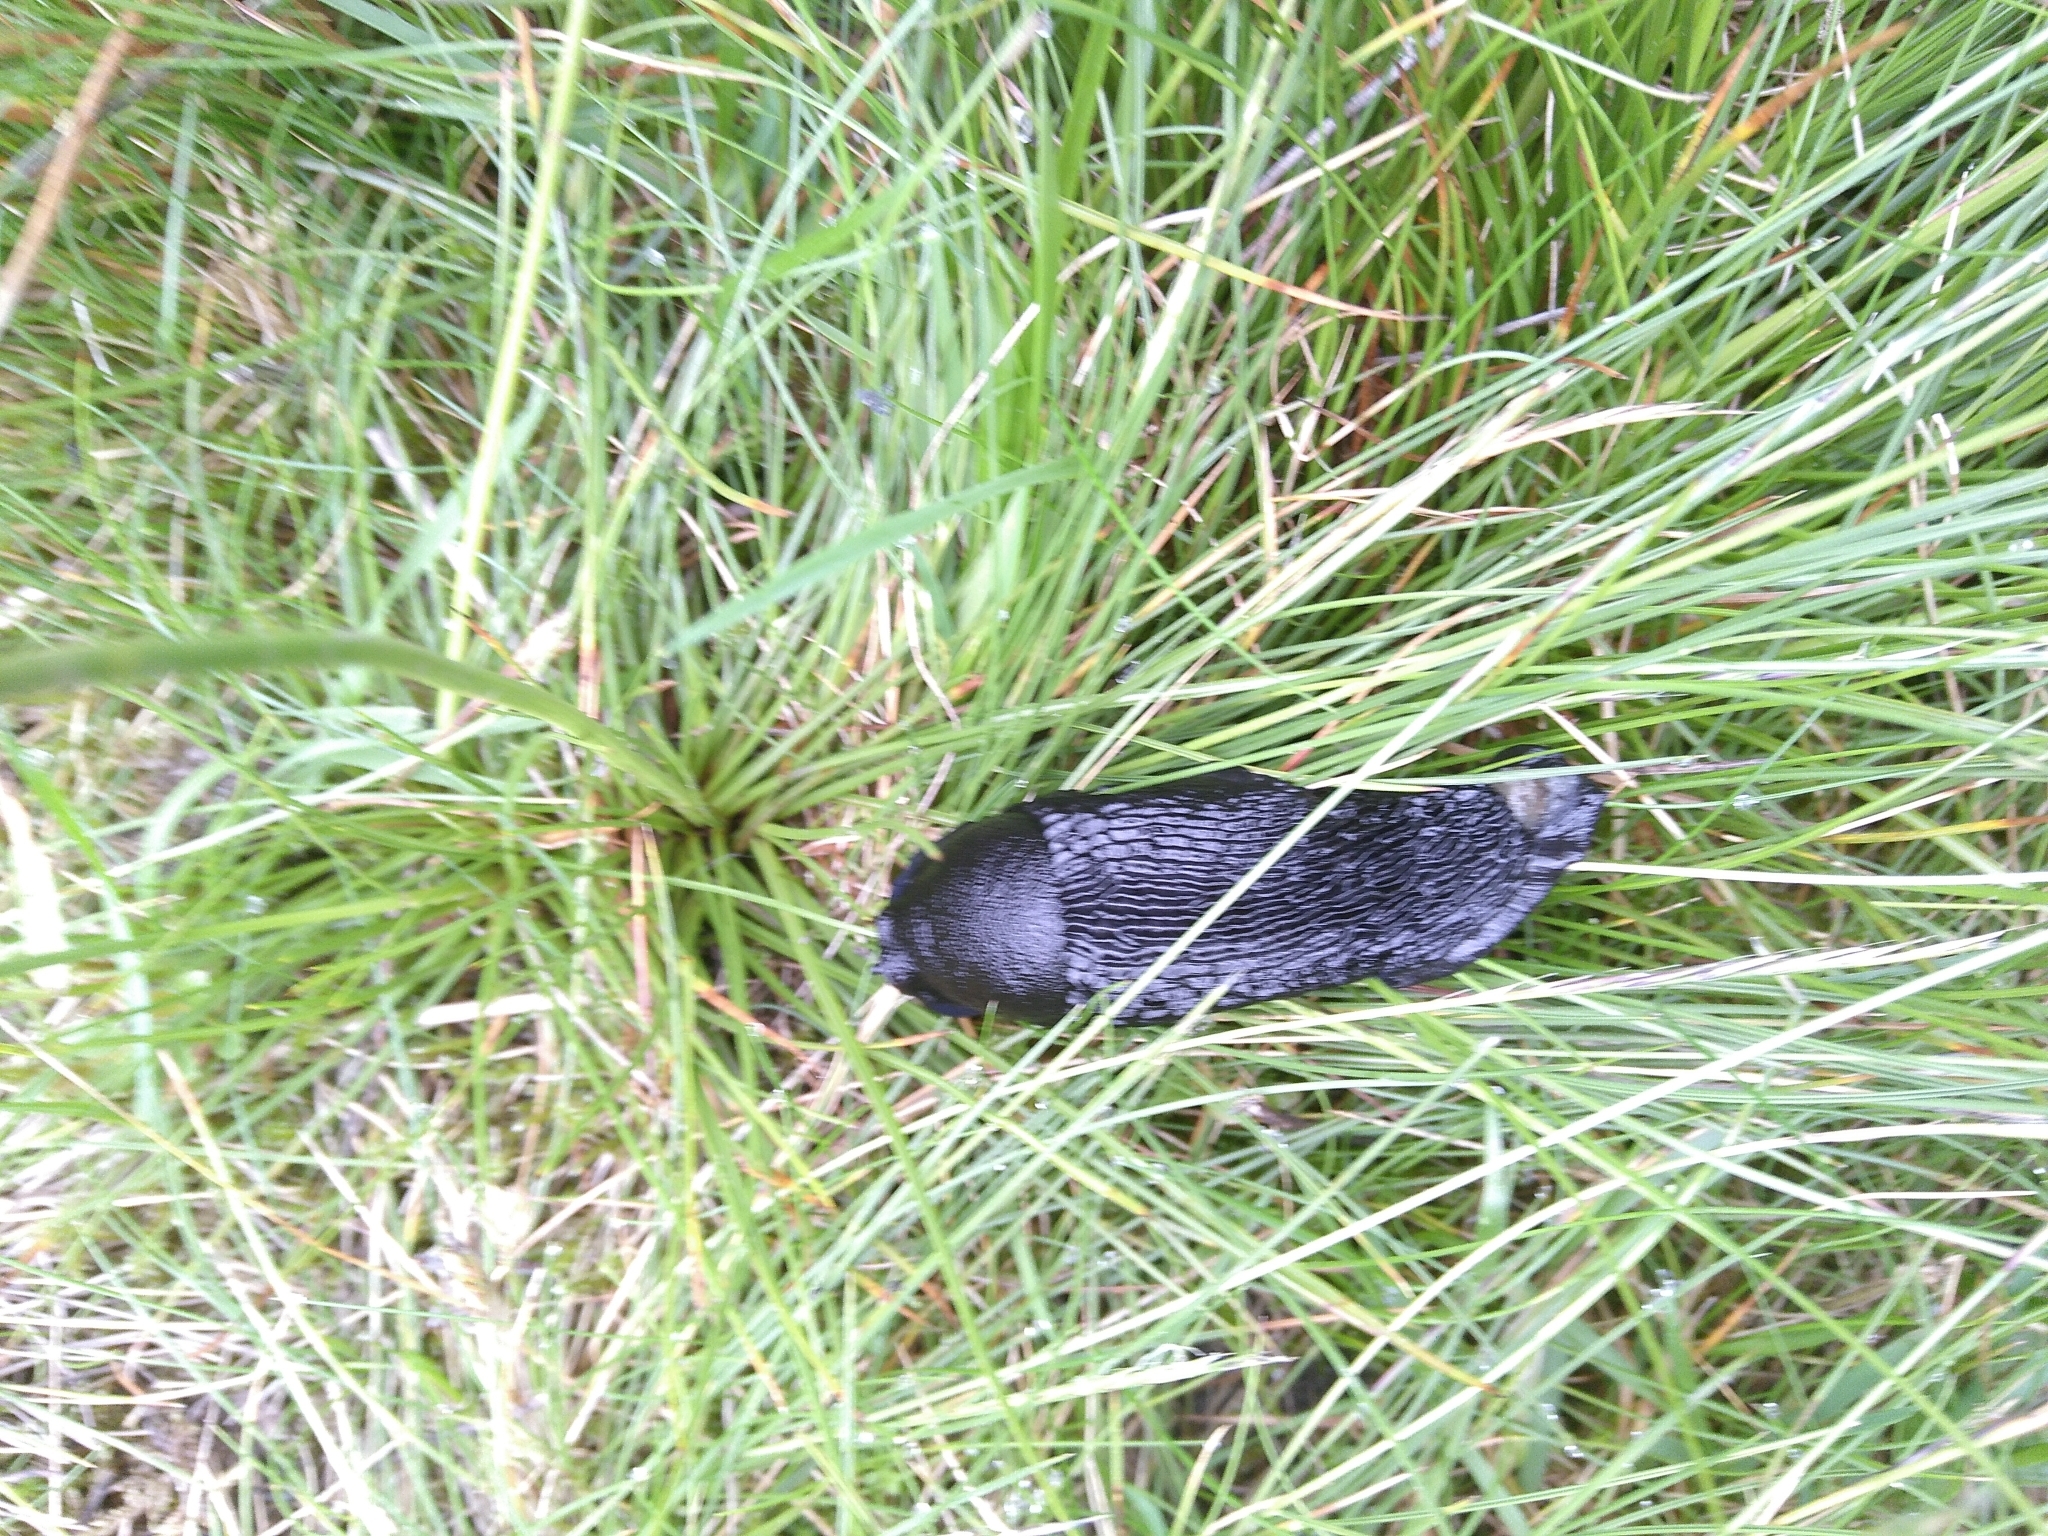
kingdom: Animalia
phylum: Mollusca
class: Gastropoda
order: Stylommatophora
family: Arionidae
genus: Arion
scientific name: Arion ater
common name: Black arion
